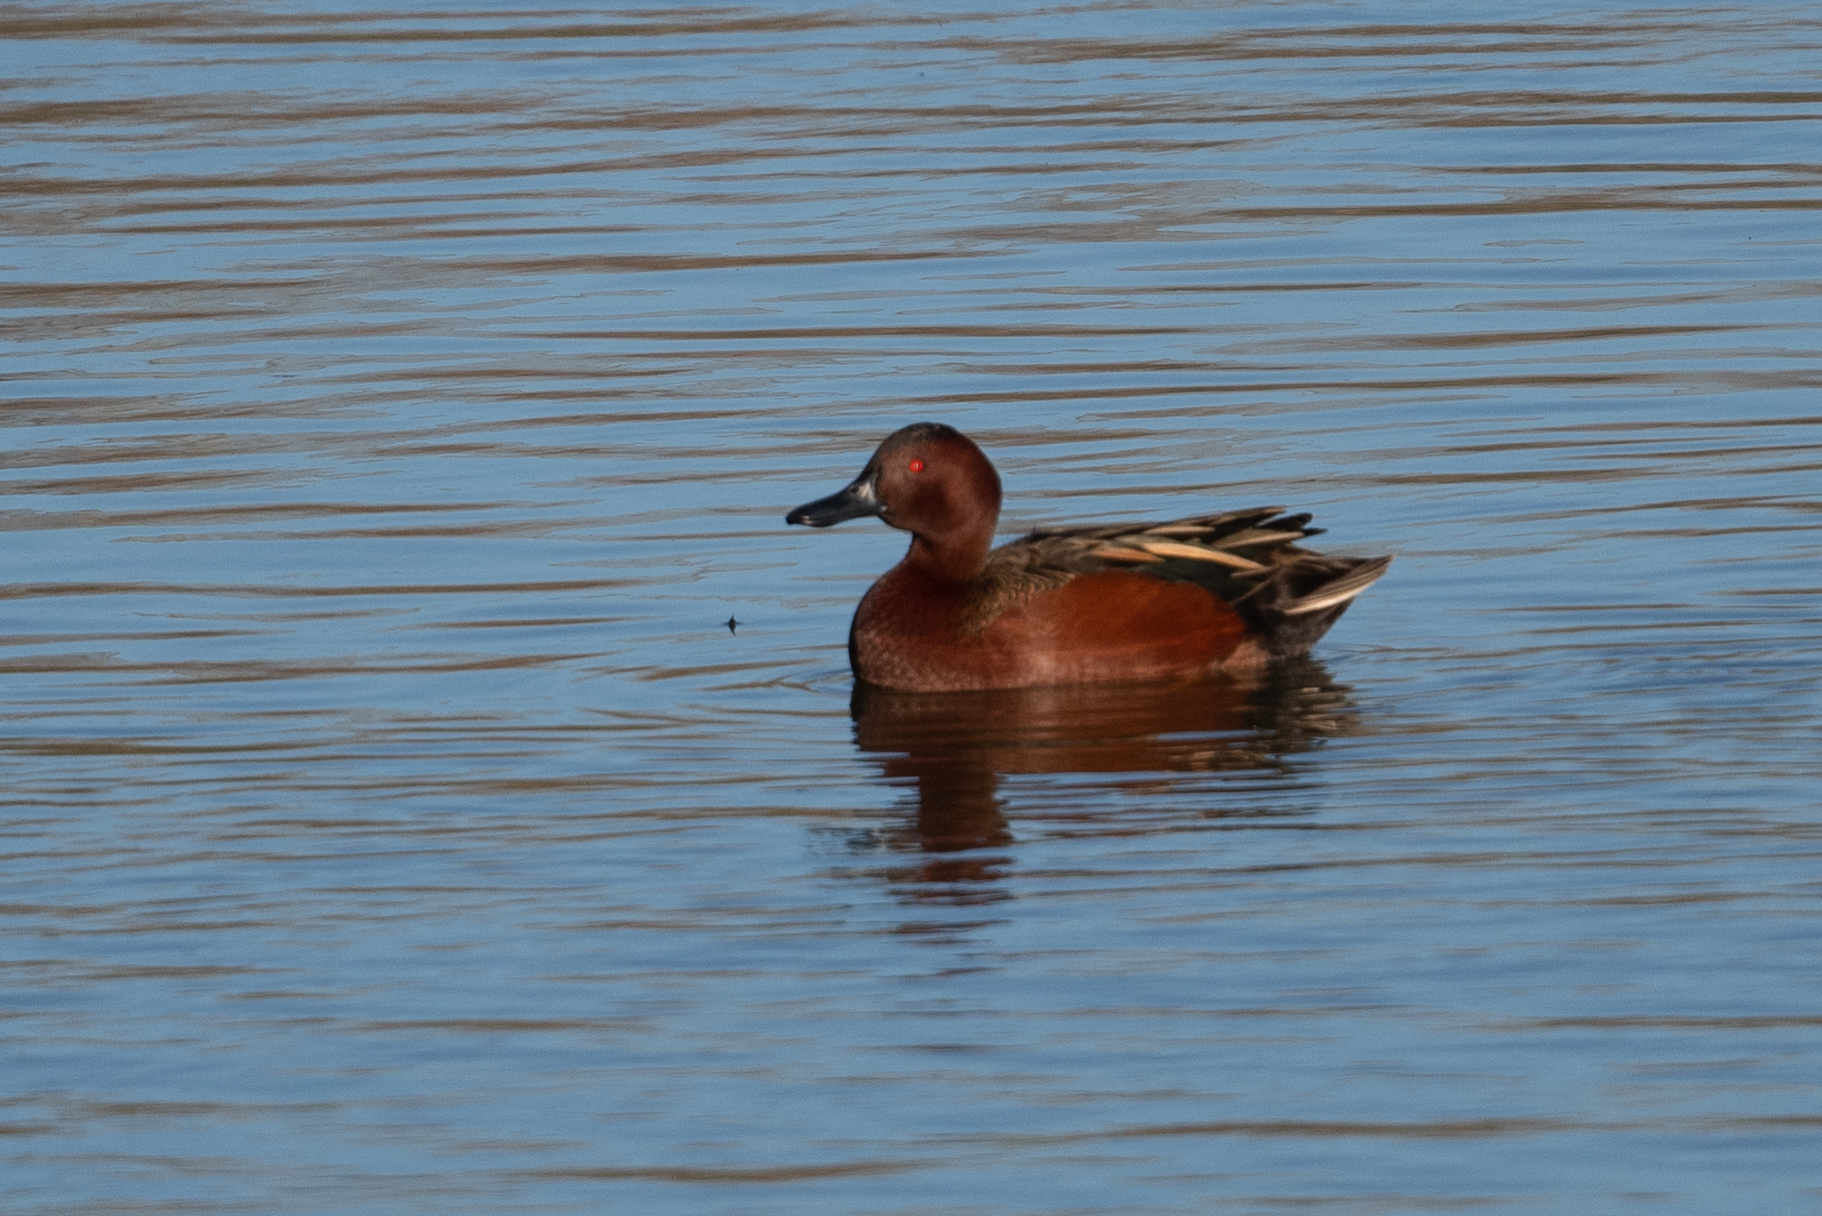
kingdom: Animalia
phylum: Chordata
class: Aves
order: Anseriformes
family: Anatidae
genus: Spatula
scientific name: Spatula cyanoptera
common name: Cinnamon teal
